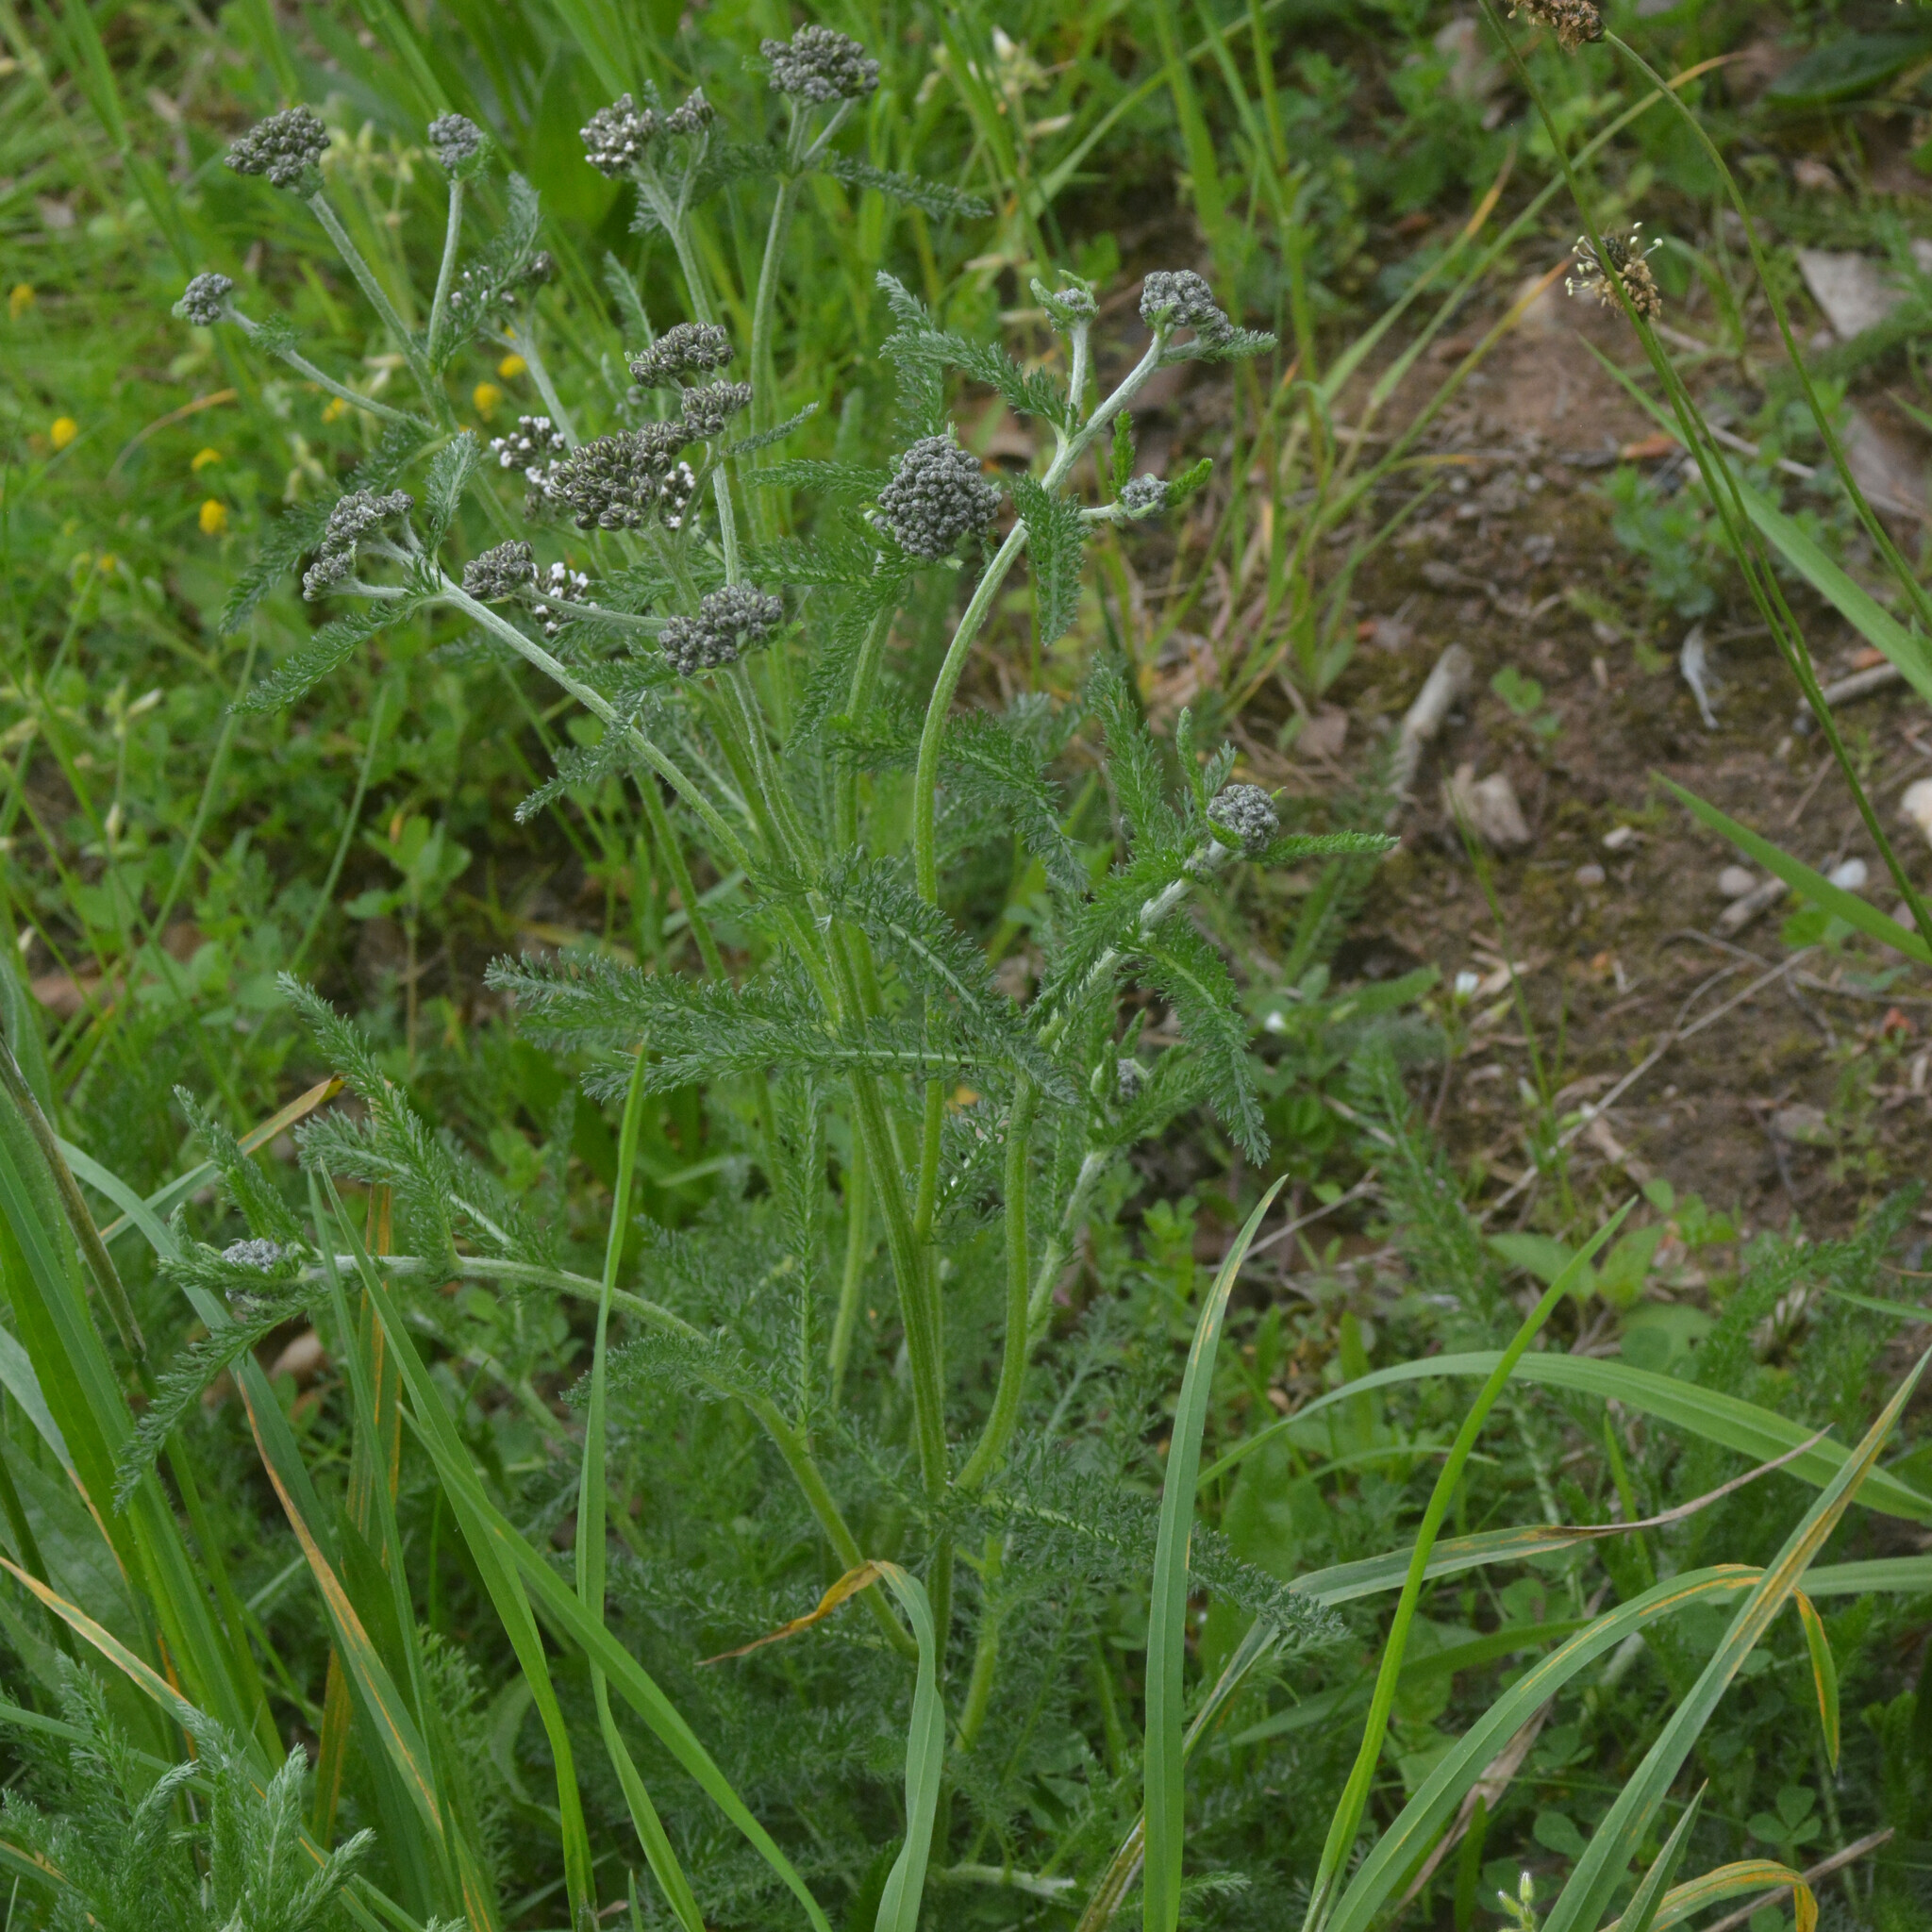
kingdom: Plantae
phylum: Tracheophyta
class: Magnoliopsida
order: Asterales
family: Asteraceae
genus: Achillea
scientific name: Achillea millefolium
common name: Yarrow
